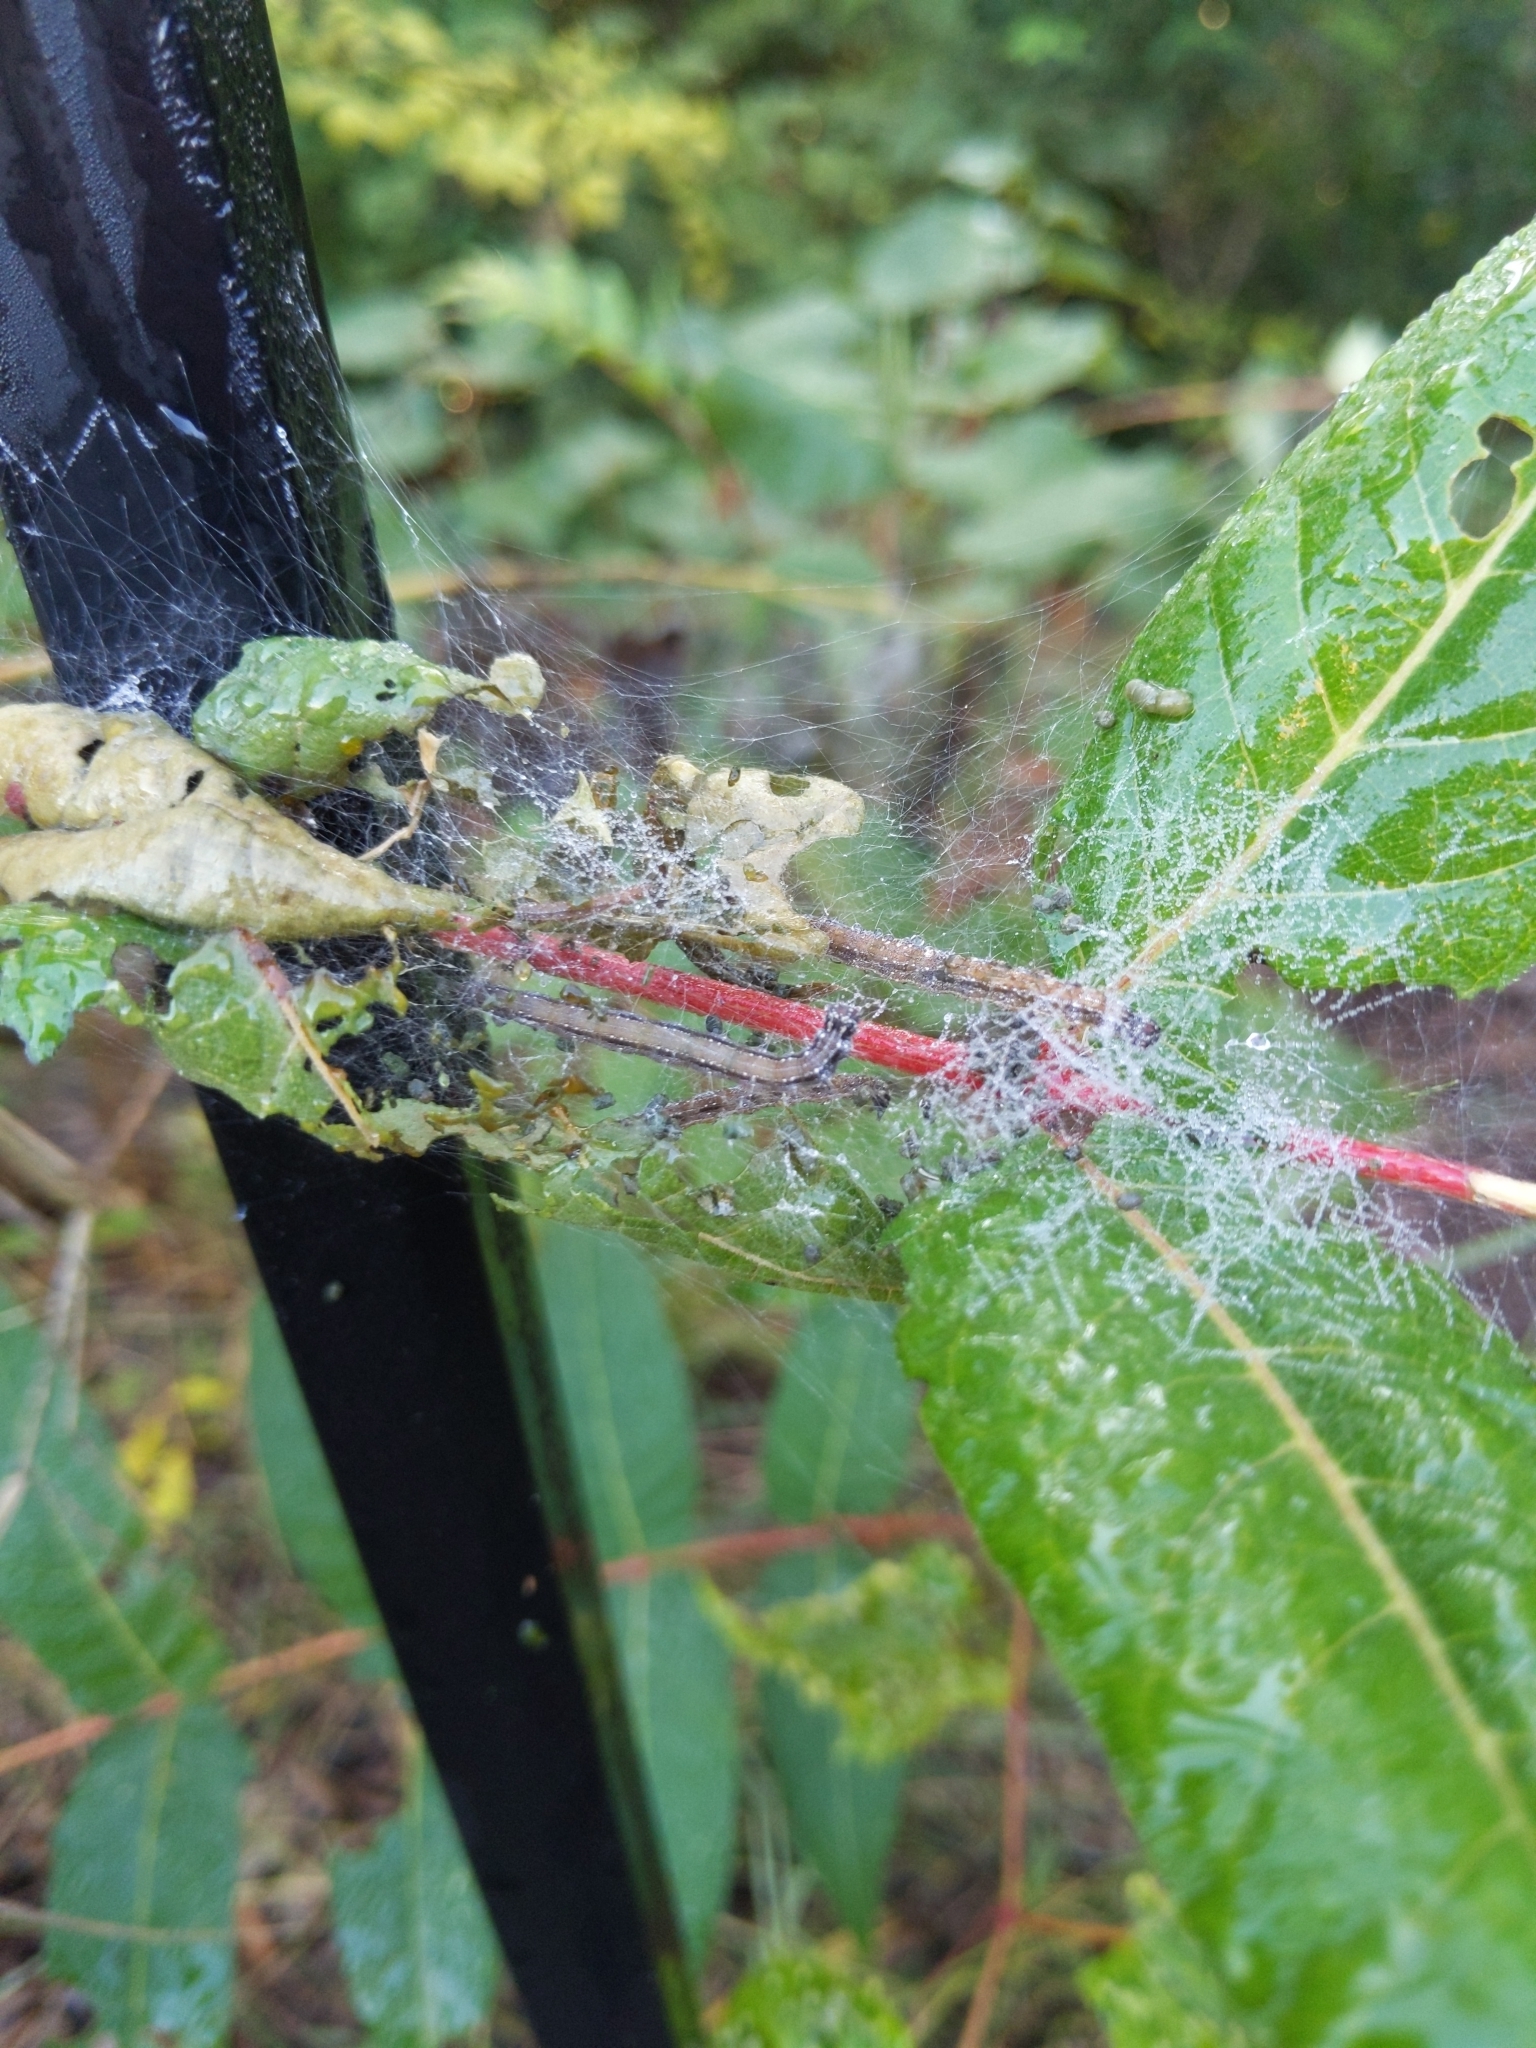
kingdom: Animalia
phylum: Arthropoda
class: Insecta
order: Lepidoptera
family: Attevidae
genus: Atteva
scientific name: Atteva punctella
